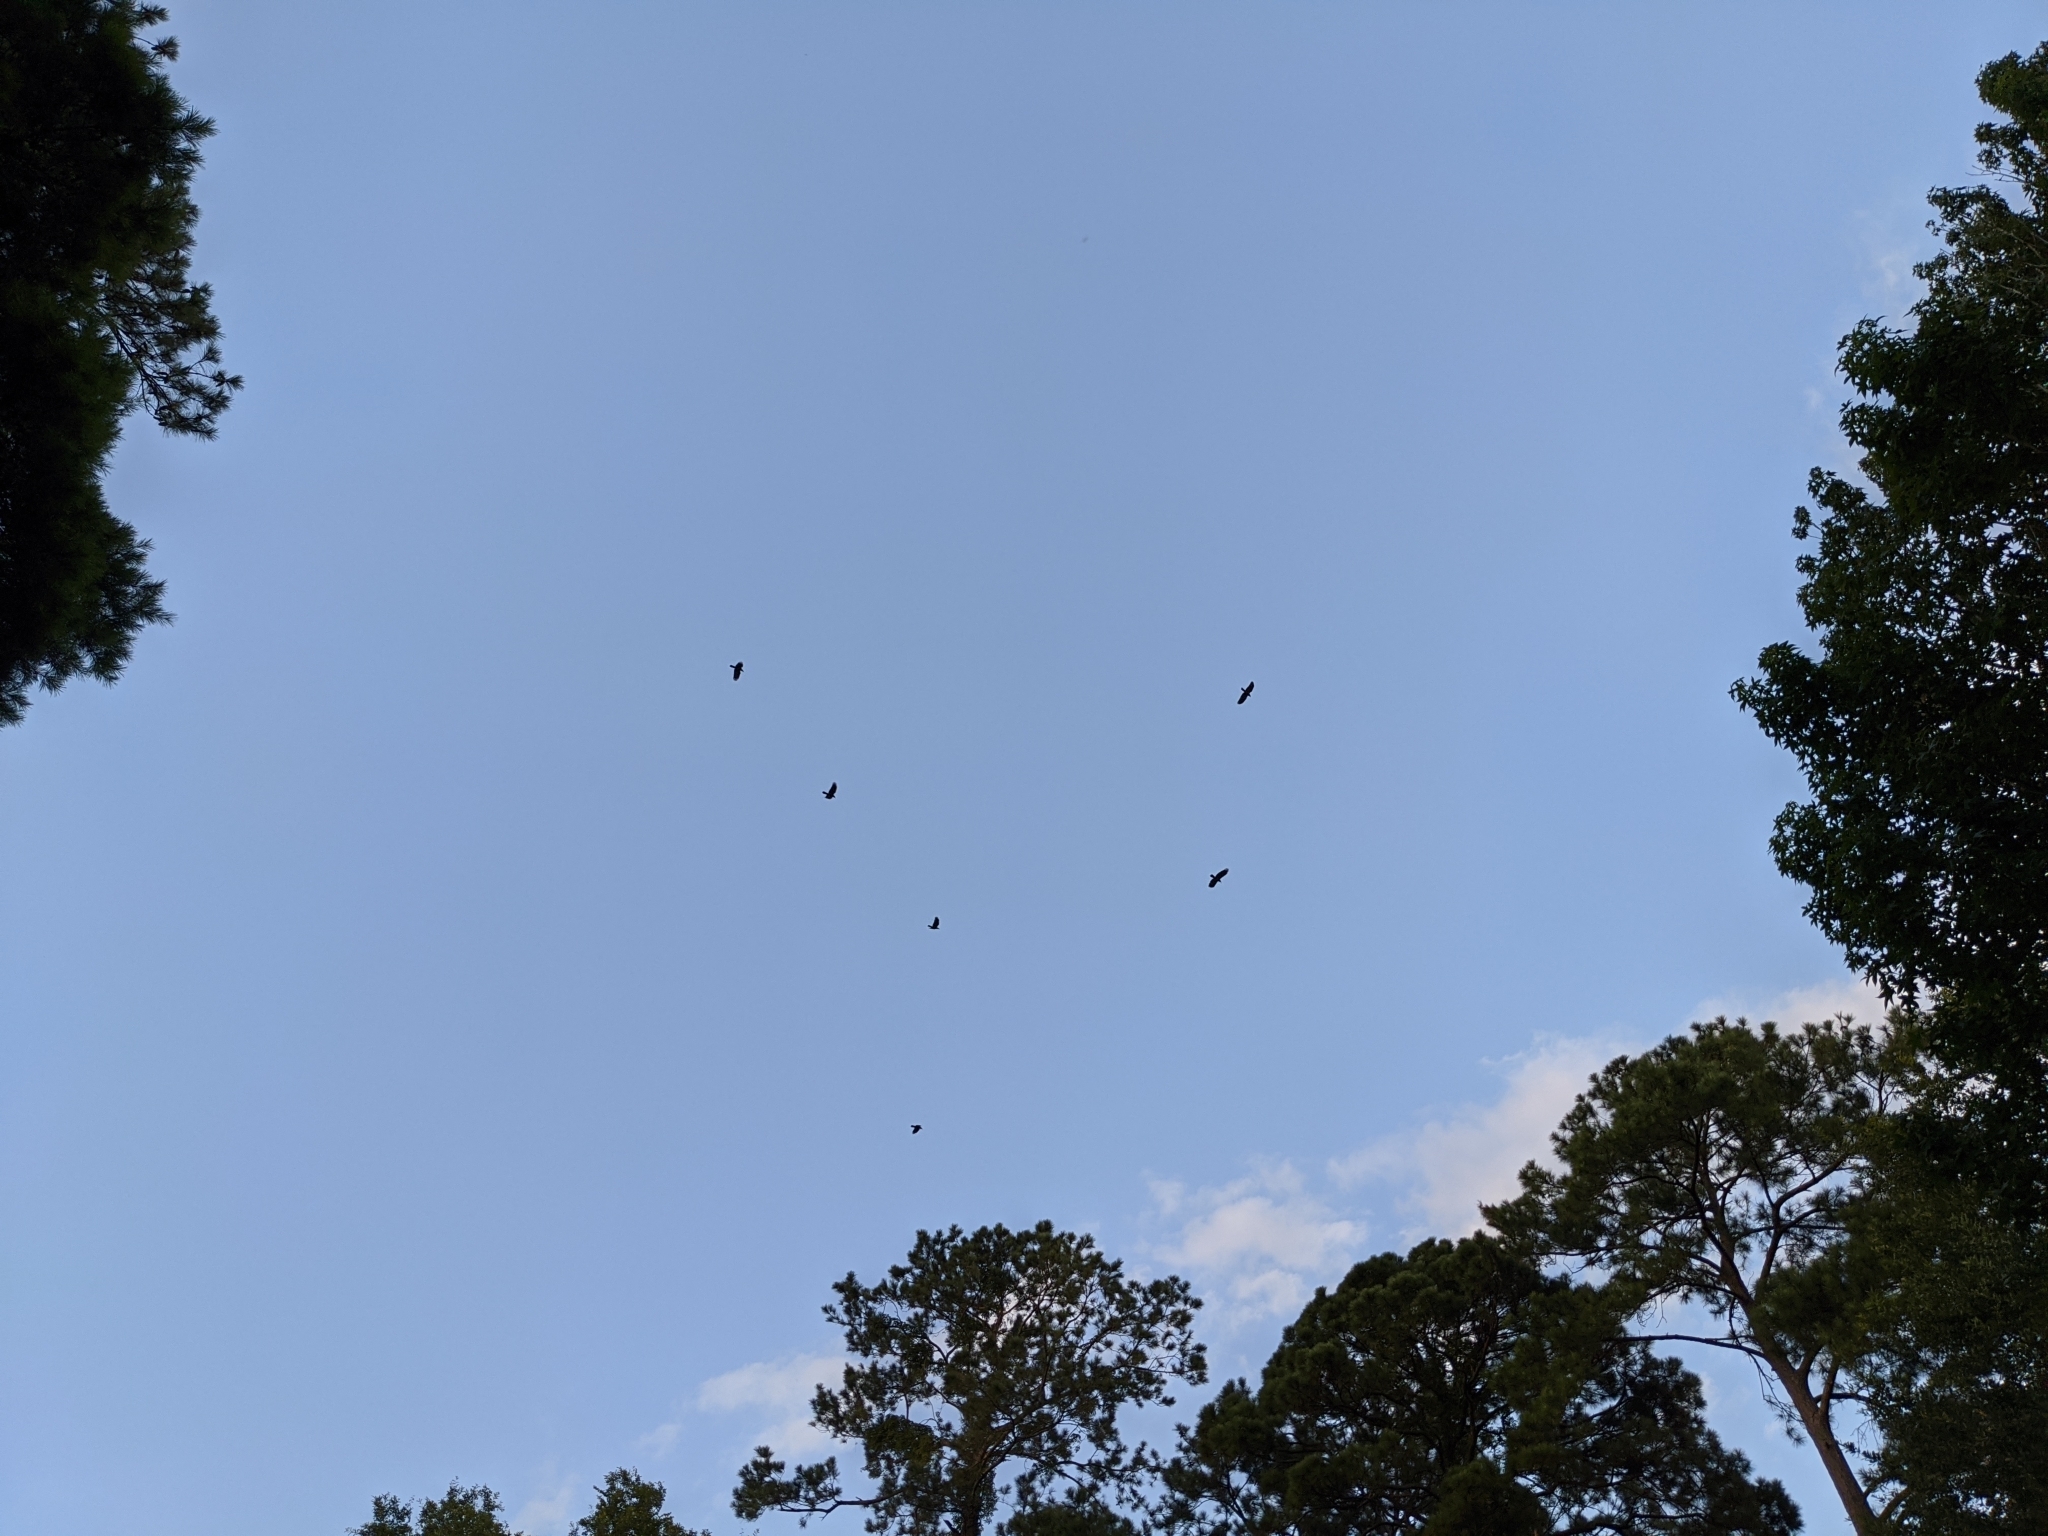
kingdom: Animalia
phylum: Chordata
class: Aves
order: Passeriformes
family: Corvidae
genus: Corvus
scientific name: Corvus ossifragus
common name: Fish crow
